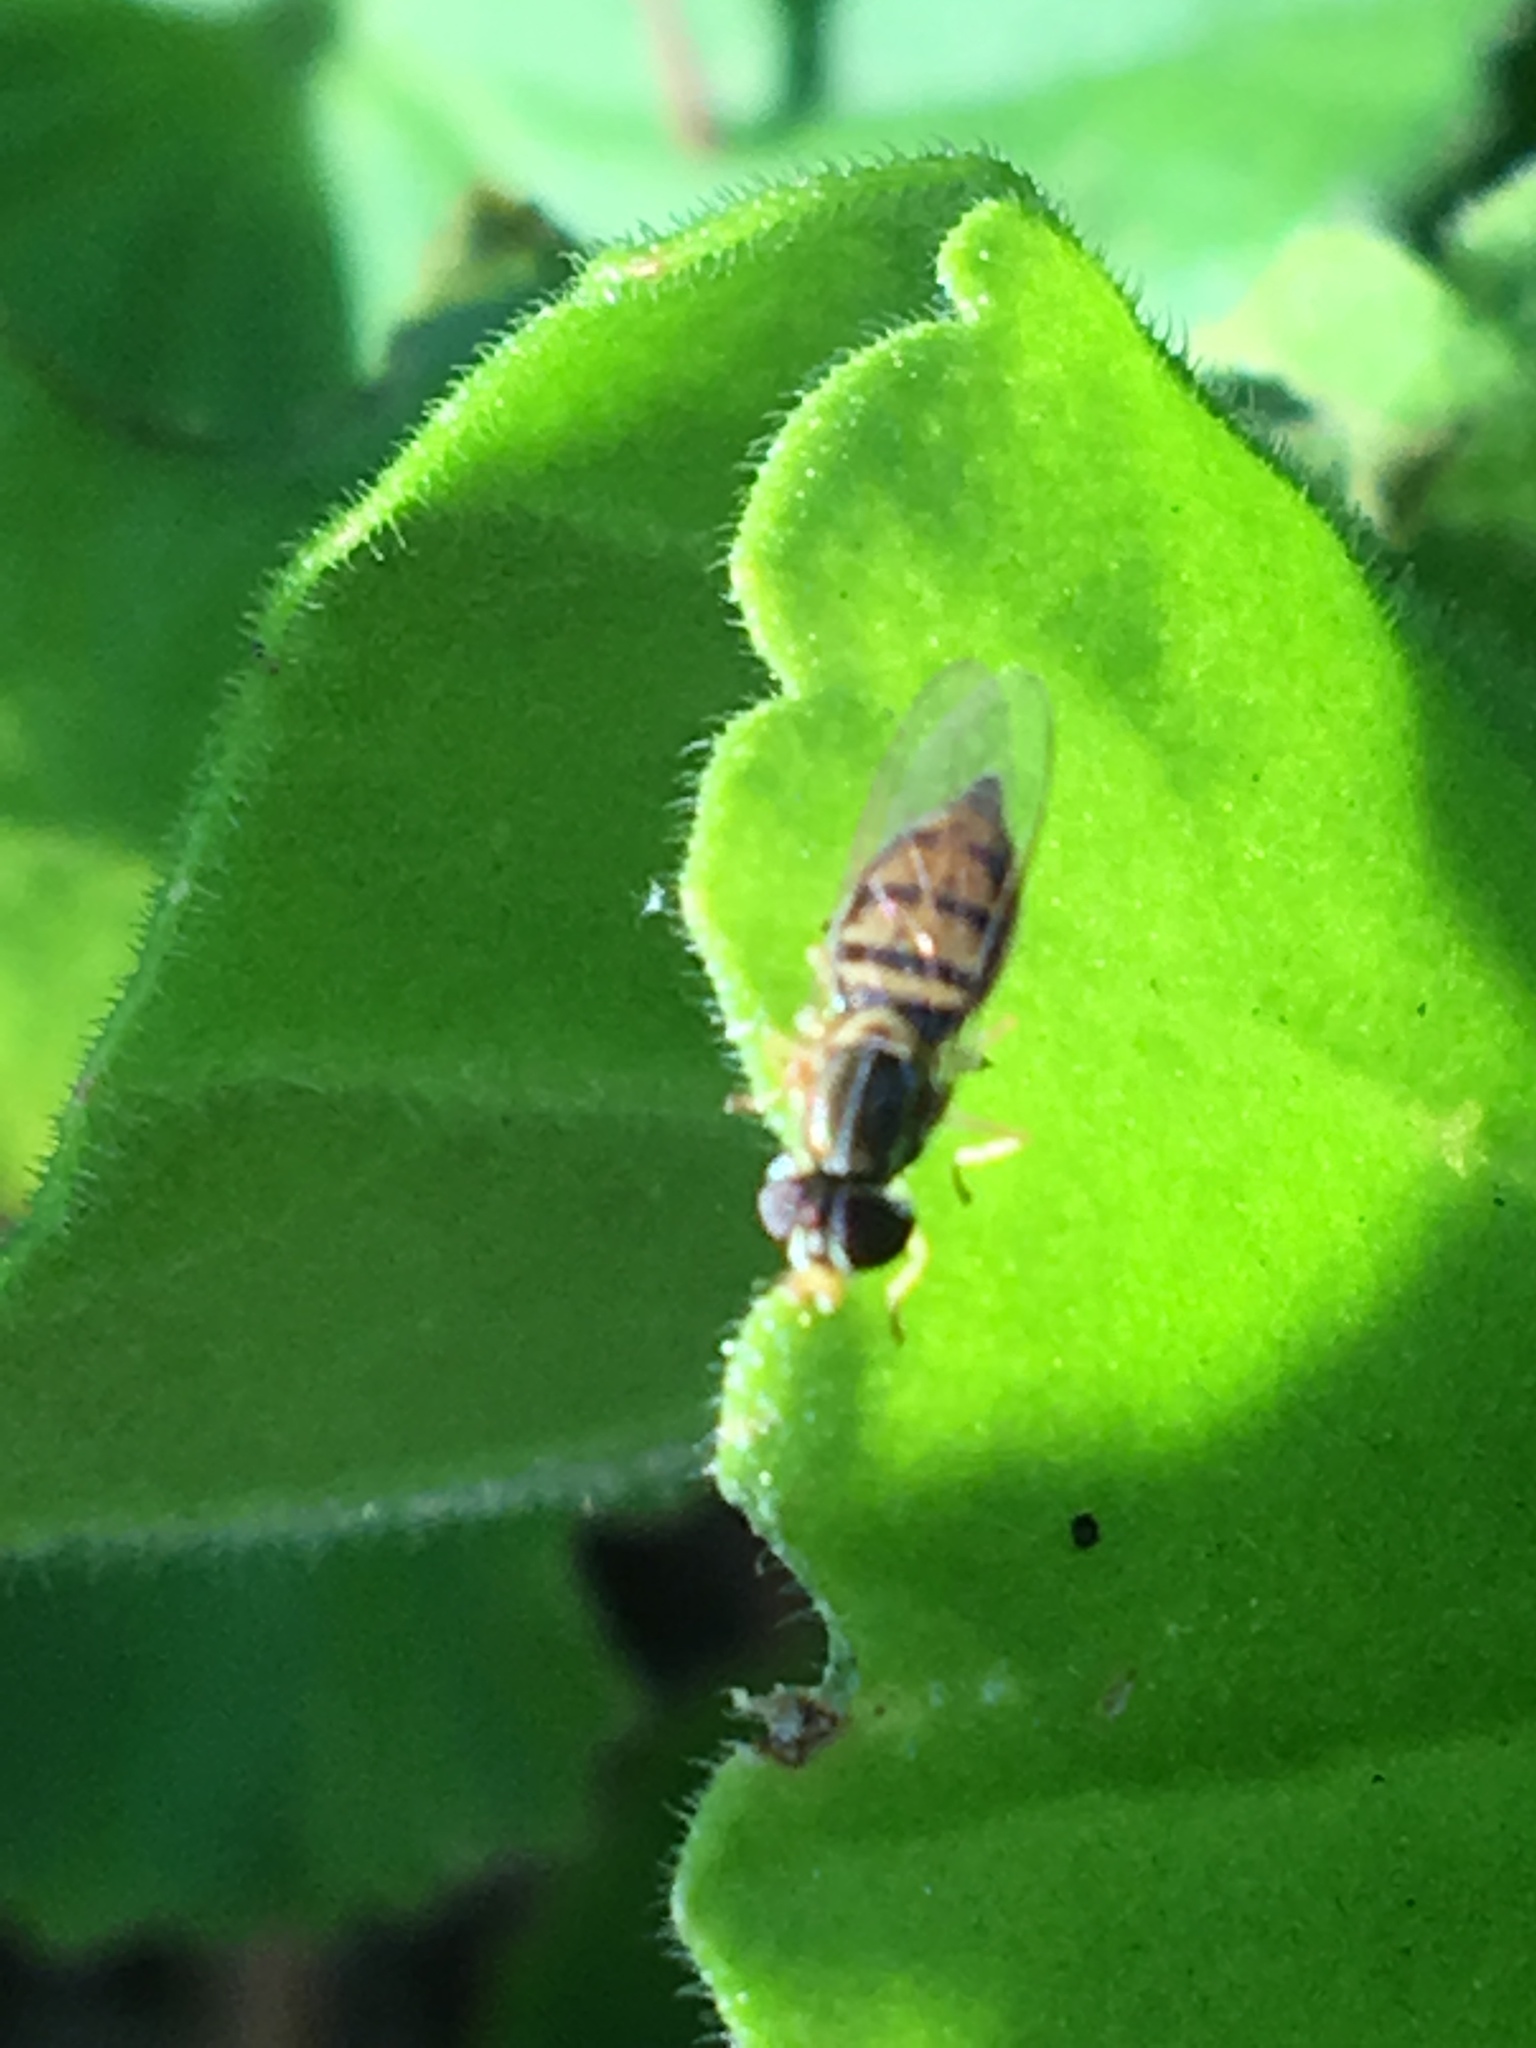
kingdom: Animalia
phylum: Arthropoda
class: Insecta
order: Diptera
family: Syrphidae
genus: Toxomerus
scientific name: Toxomerus marginatus
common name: Syrphid fly
